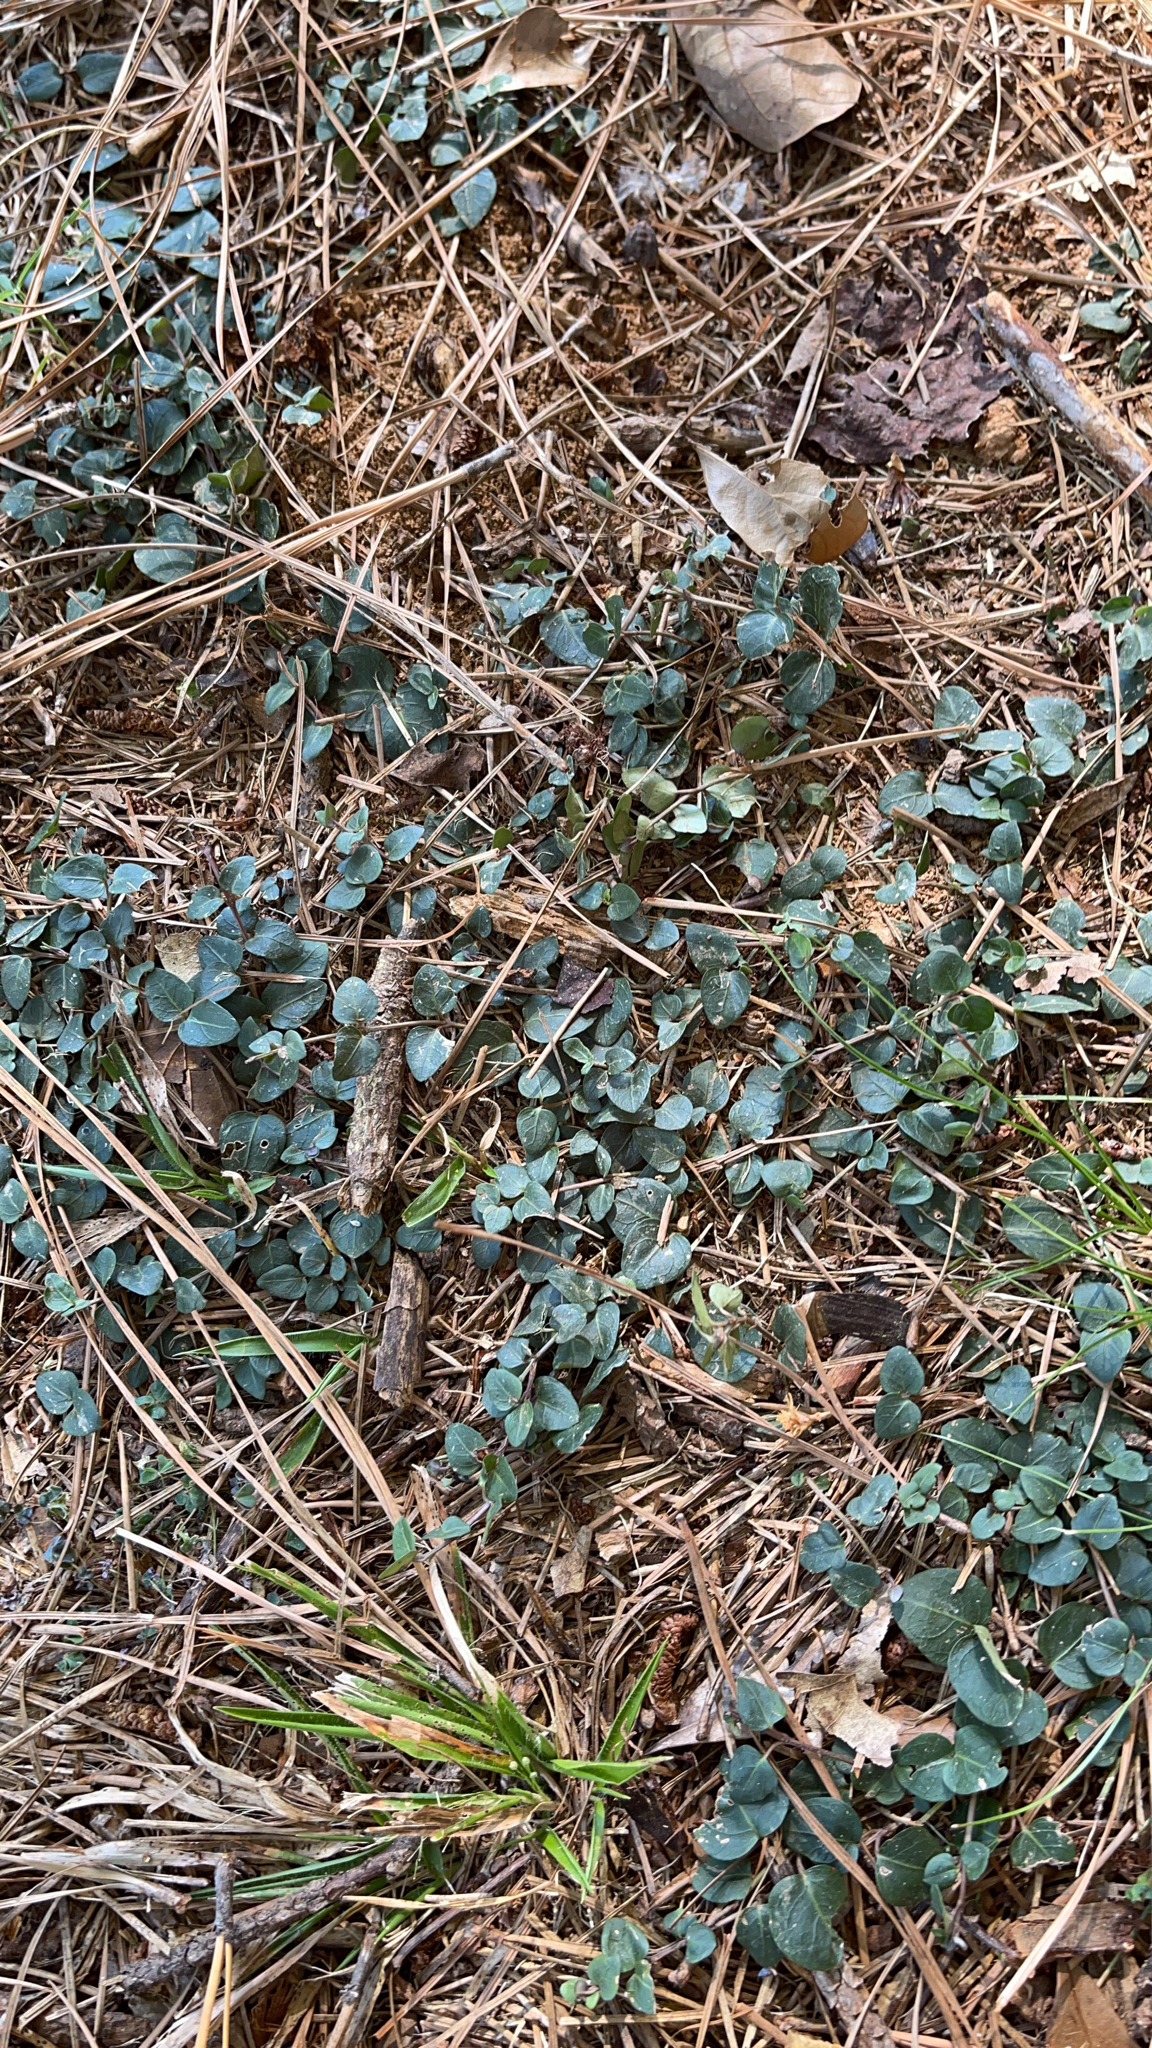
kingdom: Plantae
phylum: Tracheophyta
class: Magnoliopsida
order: Gentianales
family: Rubiaceae
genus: Mitchella
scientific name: Mitchella repens
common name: Partridge-berry
